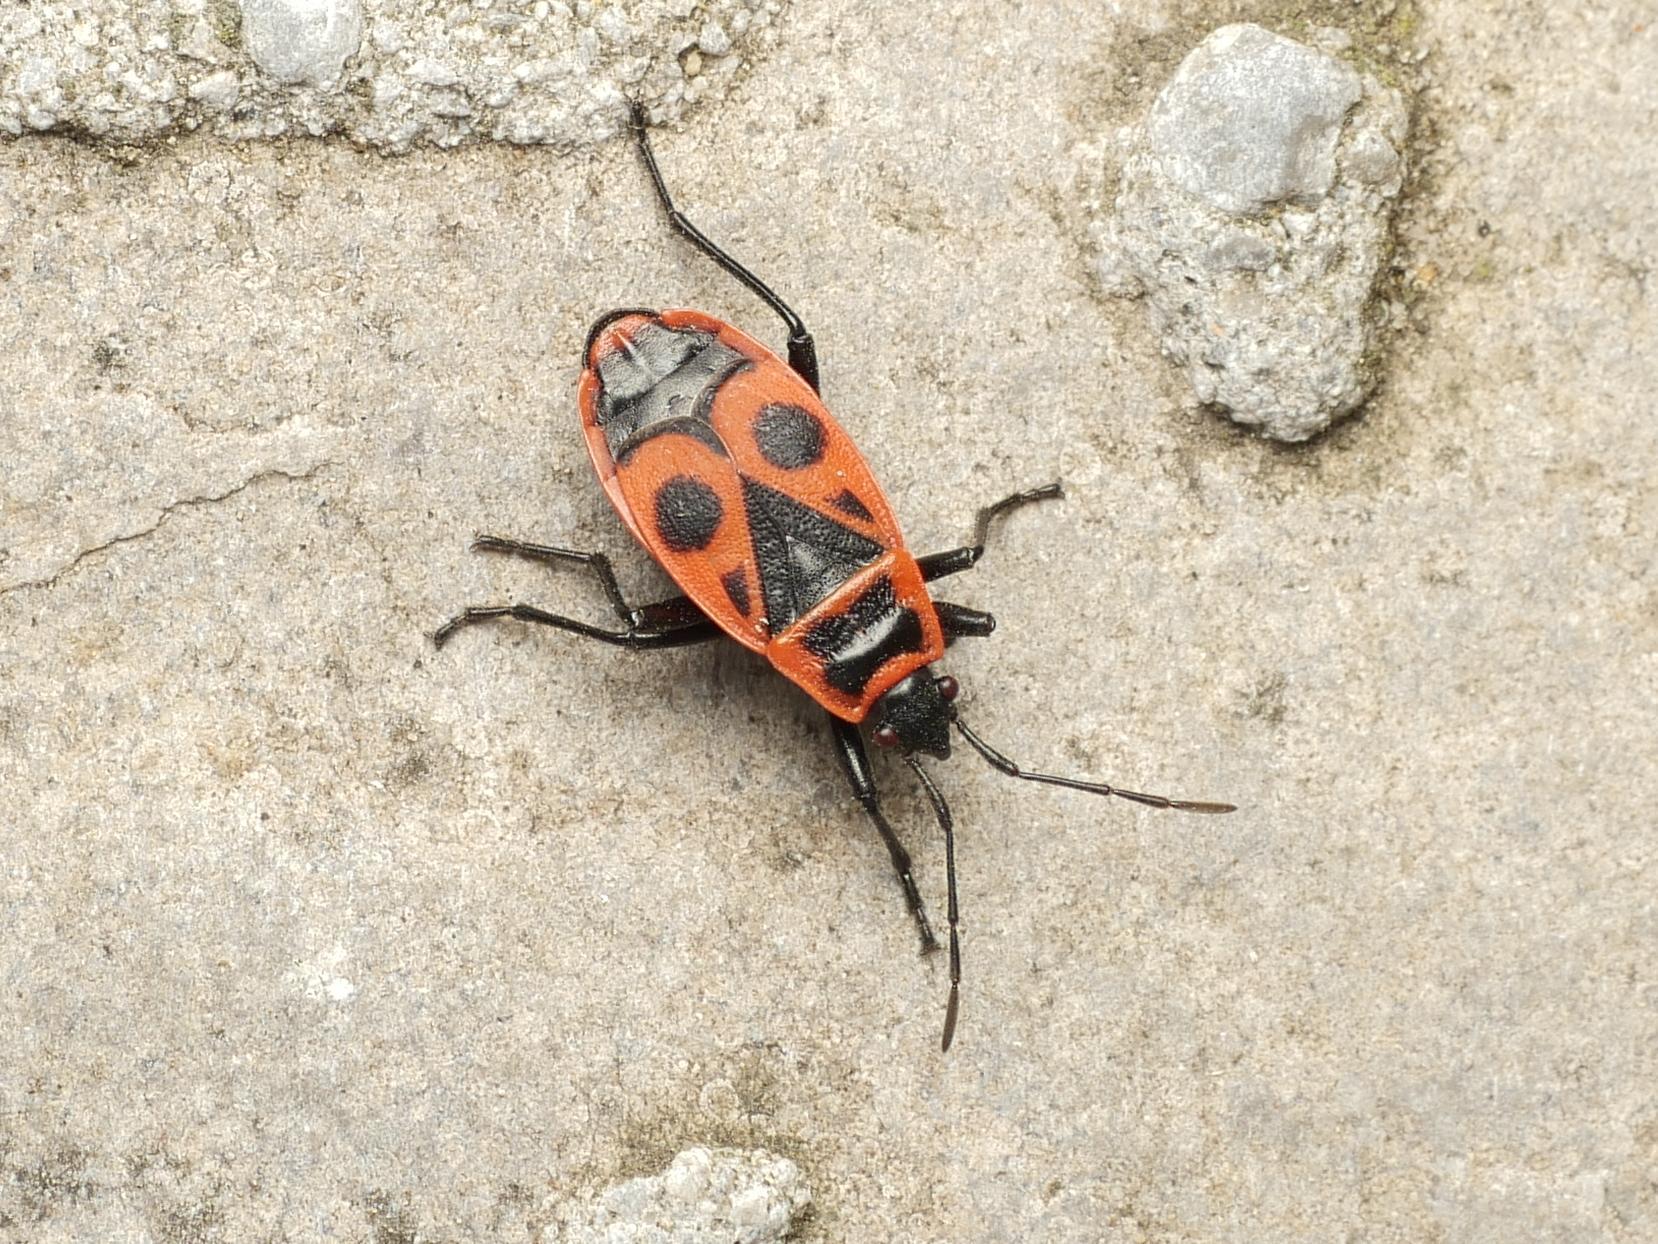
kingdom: Animalia
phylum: Arthropoda
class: Insecta
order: Hemiptera
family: Pyrrhocoridae
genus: Pyrrhocoris
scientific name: Pyrrhocoris apterus
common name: Firebug
